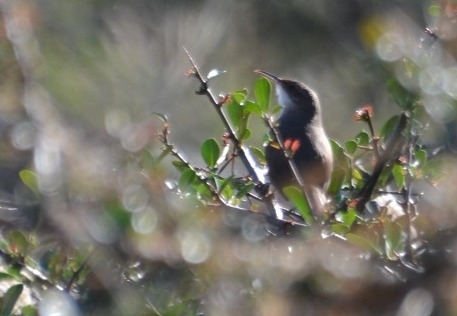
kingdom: Animalia
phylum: Chordata
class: Aves
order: Passeriformes
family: Furnariidae
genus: Upucerthia
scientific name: Upucerthia certhioides
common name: Chaco earthcreeper
